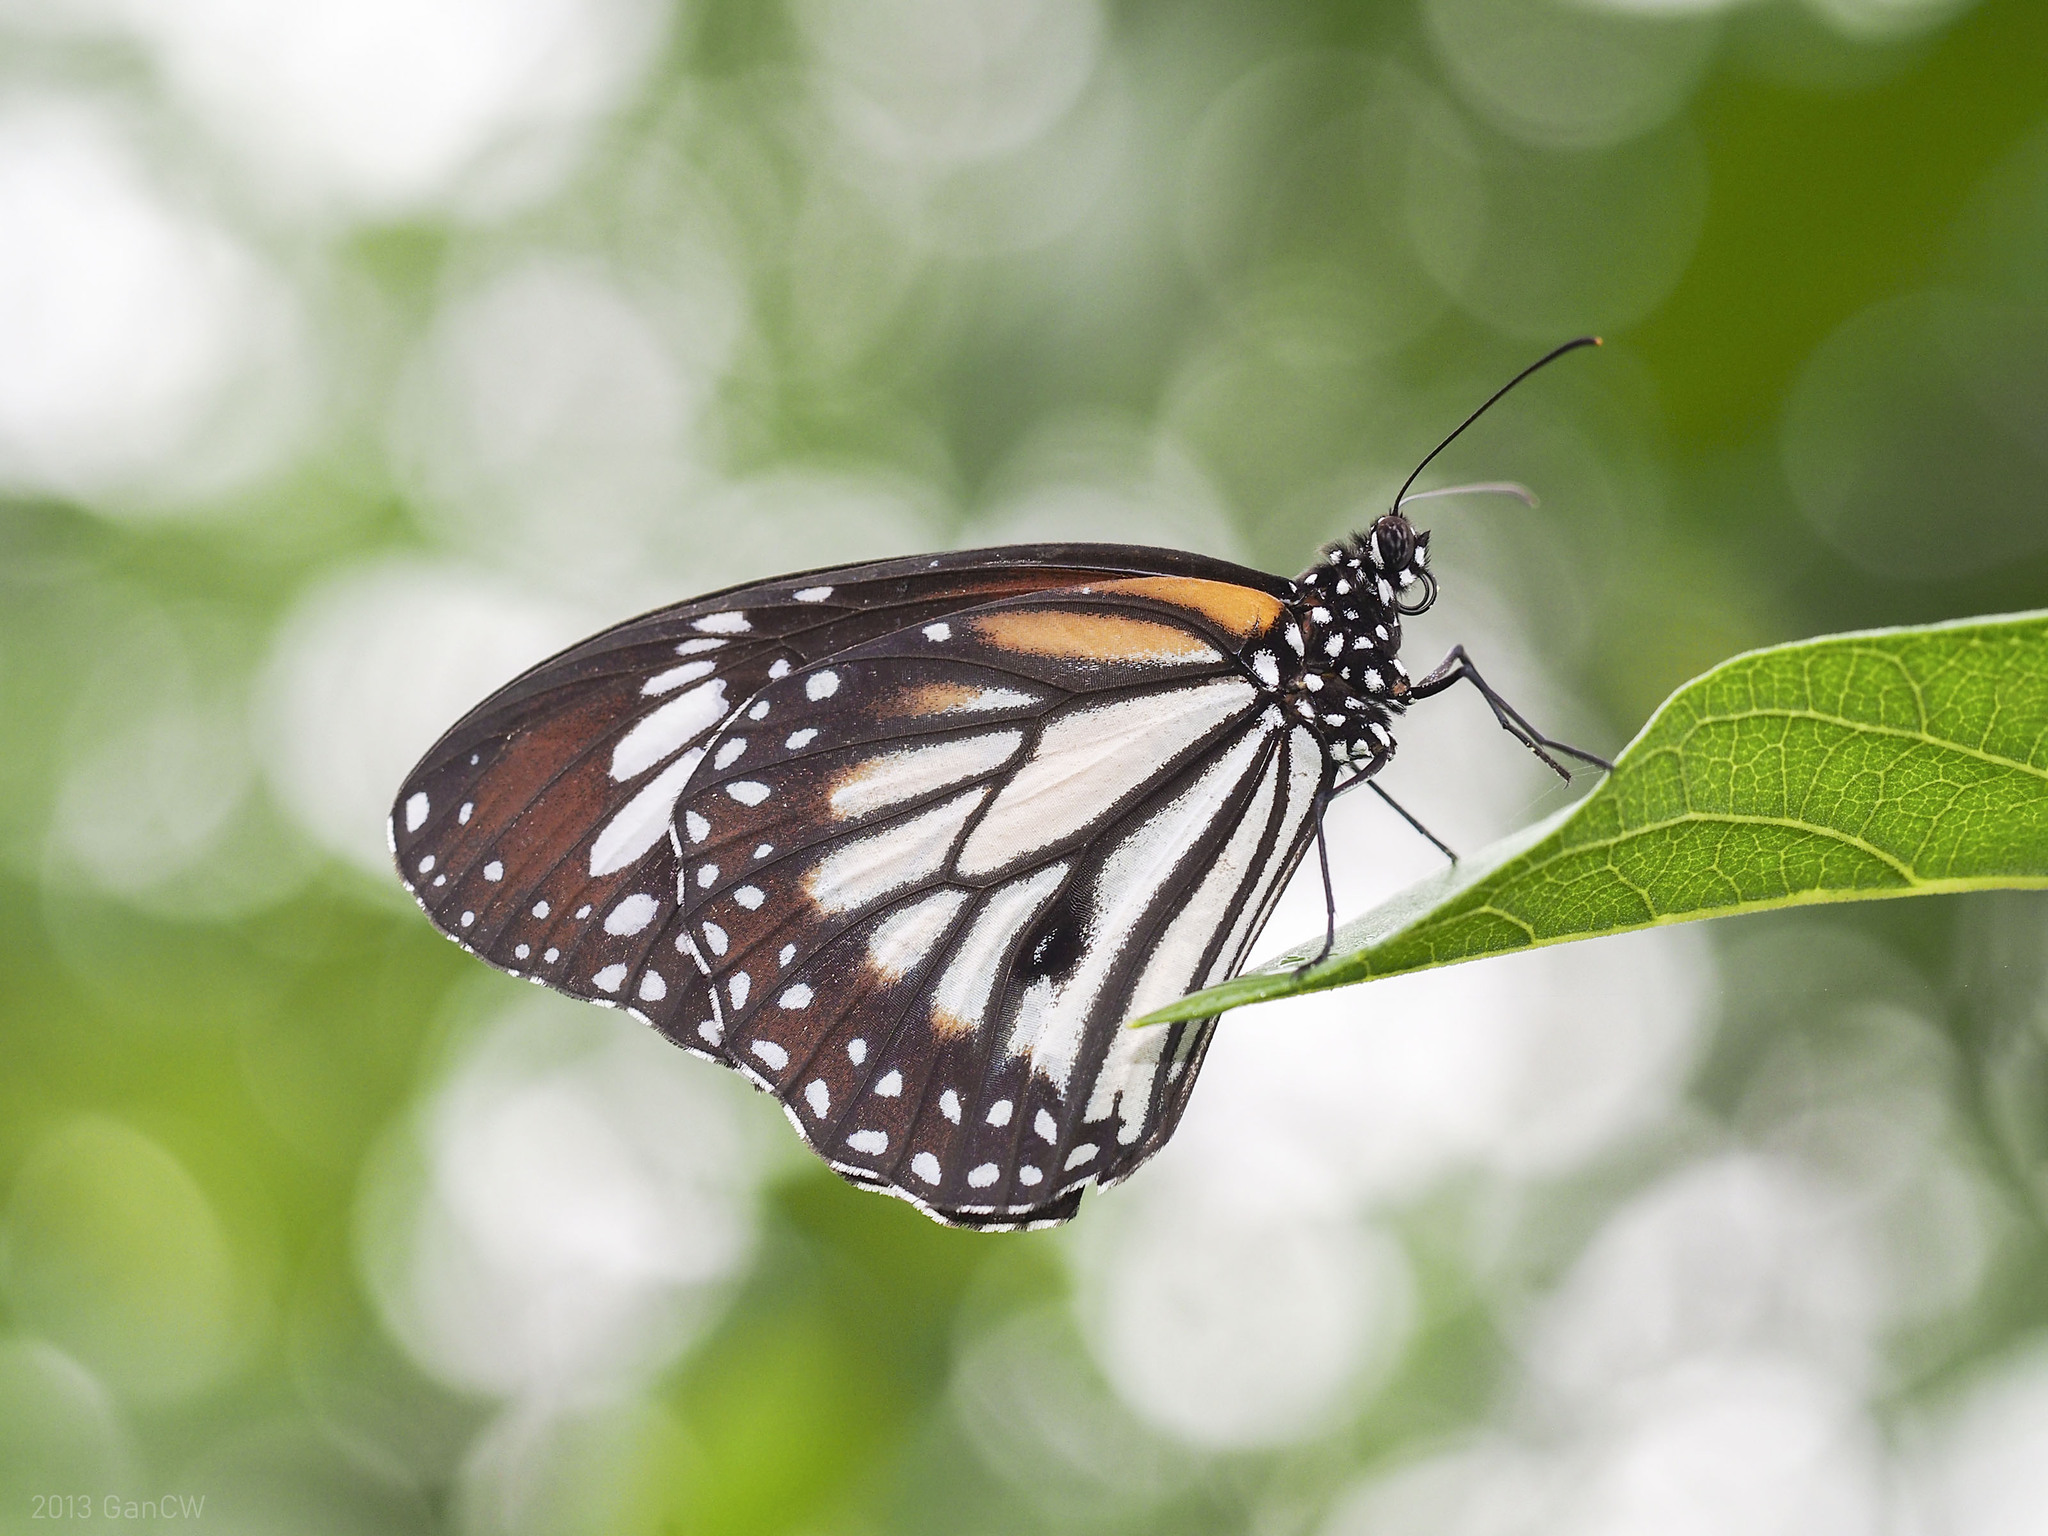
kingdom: Animalia
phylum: Arthropoda
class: Insecta
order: Lepidoptera
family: Nymphalidae
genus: Danaus
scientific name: Danaus melanippus
